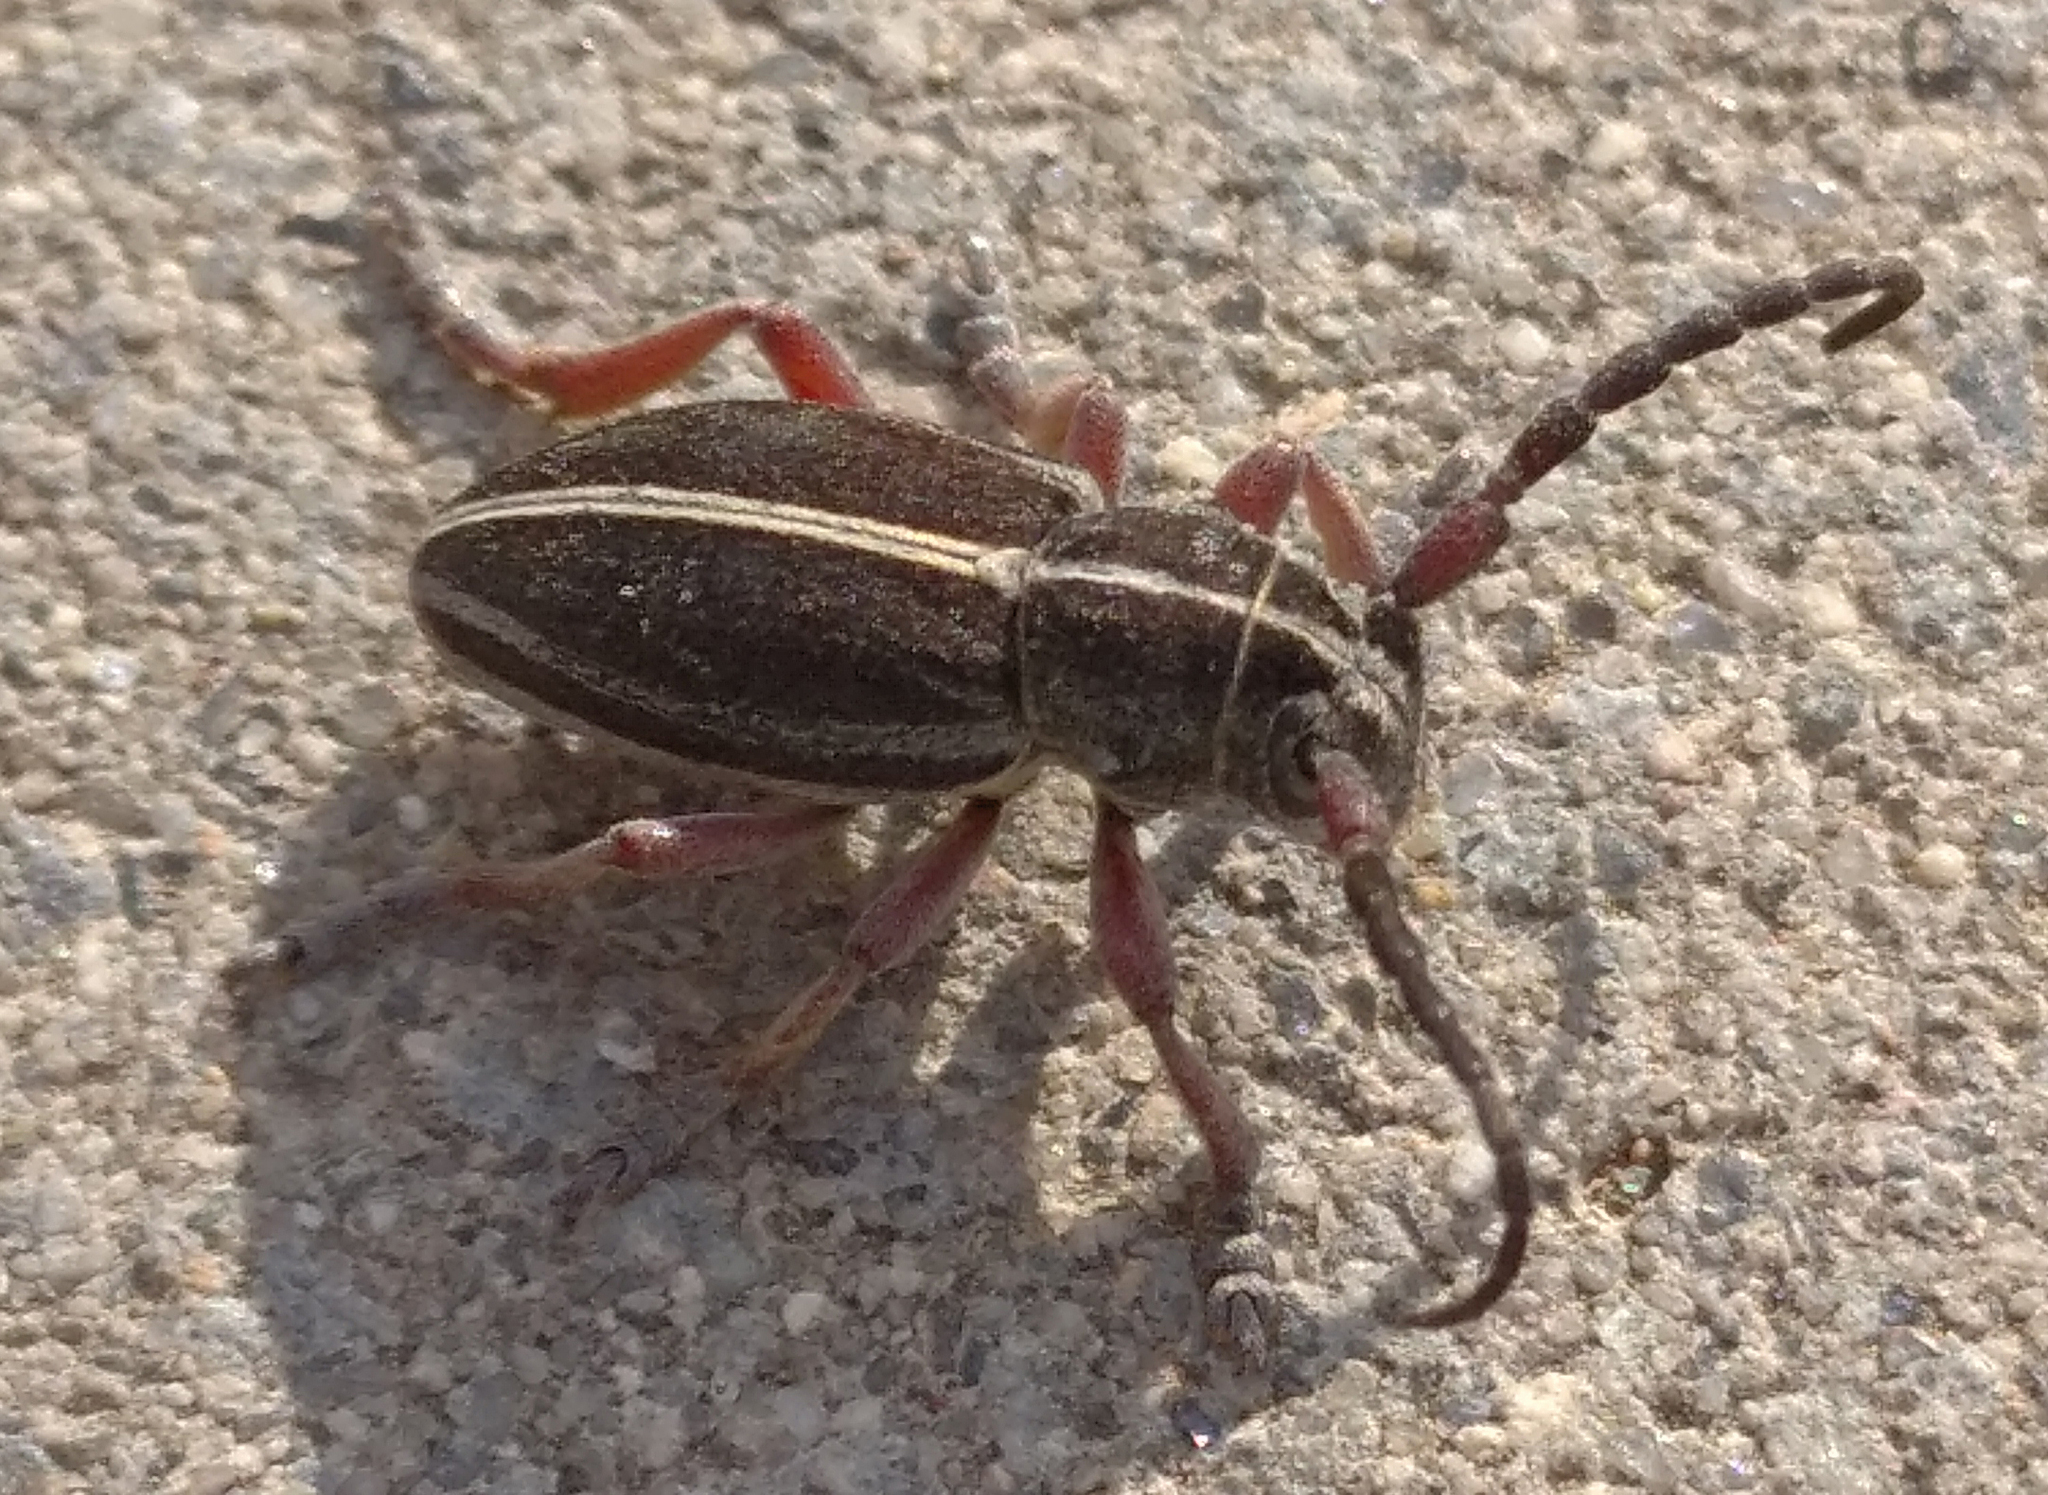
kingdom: Animalia
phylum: Arthropoda
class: Insecta
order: Coleoptera
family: Cerambycidae
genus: Dorcadion
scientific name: Dorcadion tauricum
